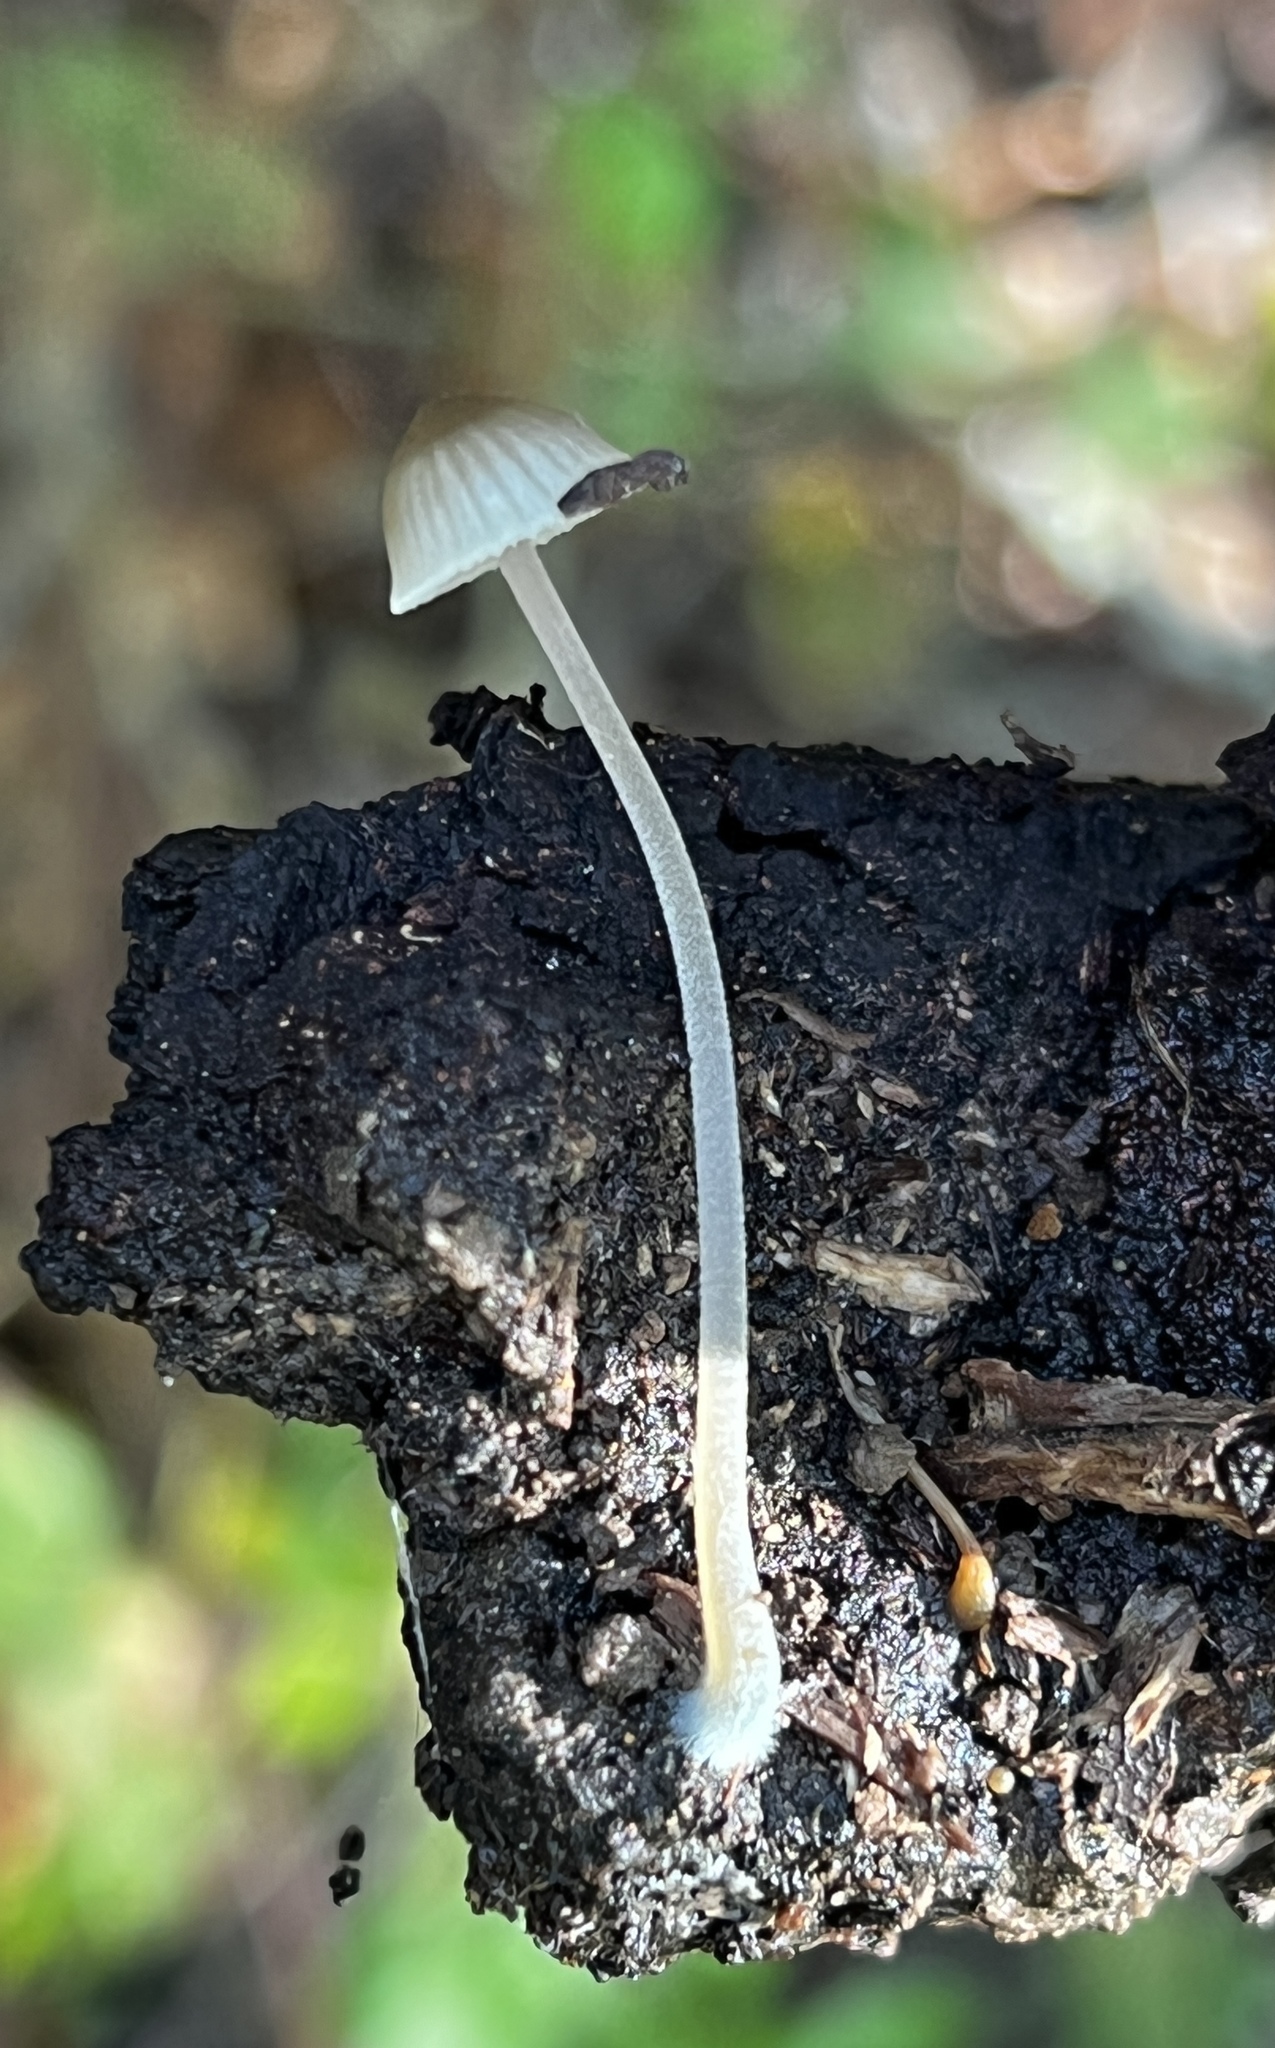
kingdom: Fungi
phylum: Basidiomycota
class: Agaricomycetes
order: Agaricales
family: Mycenaceae
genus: Mycena
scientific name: Mycena amicta
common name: Coldfoot bonnet
